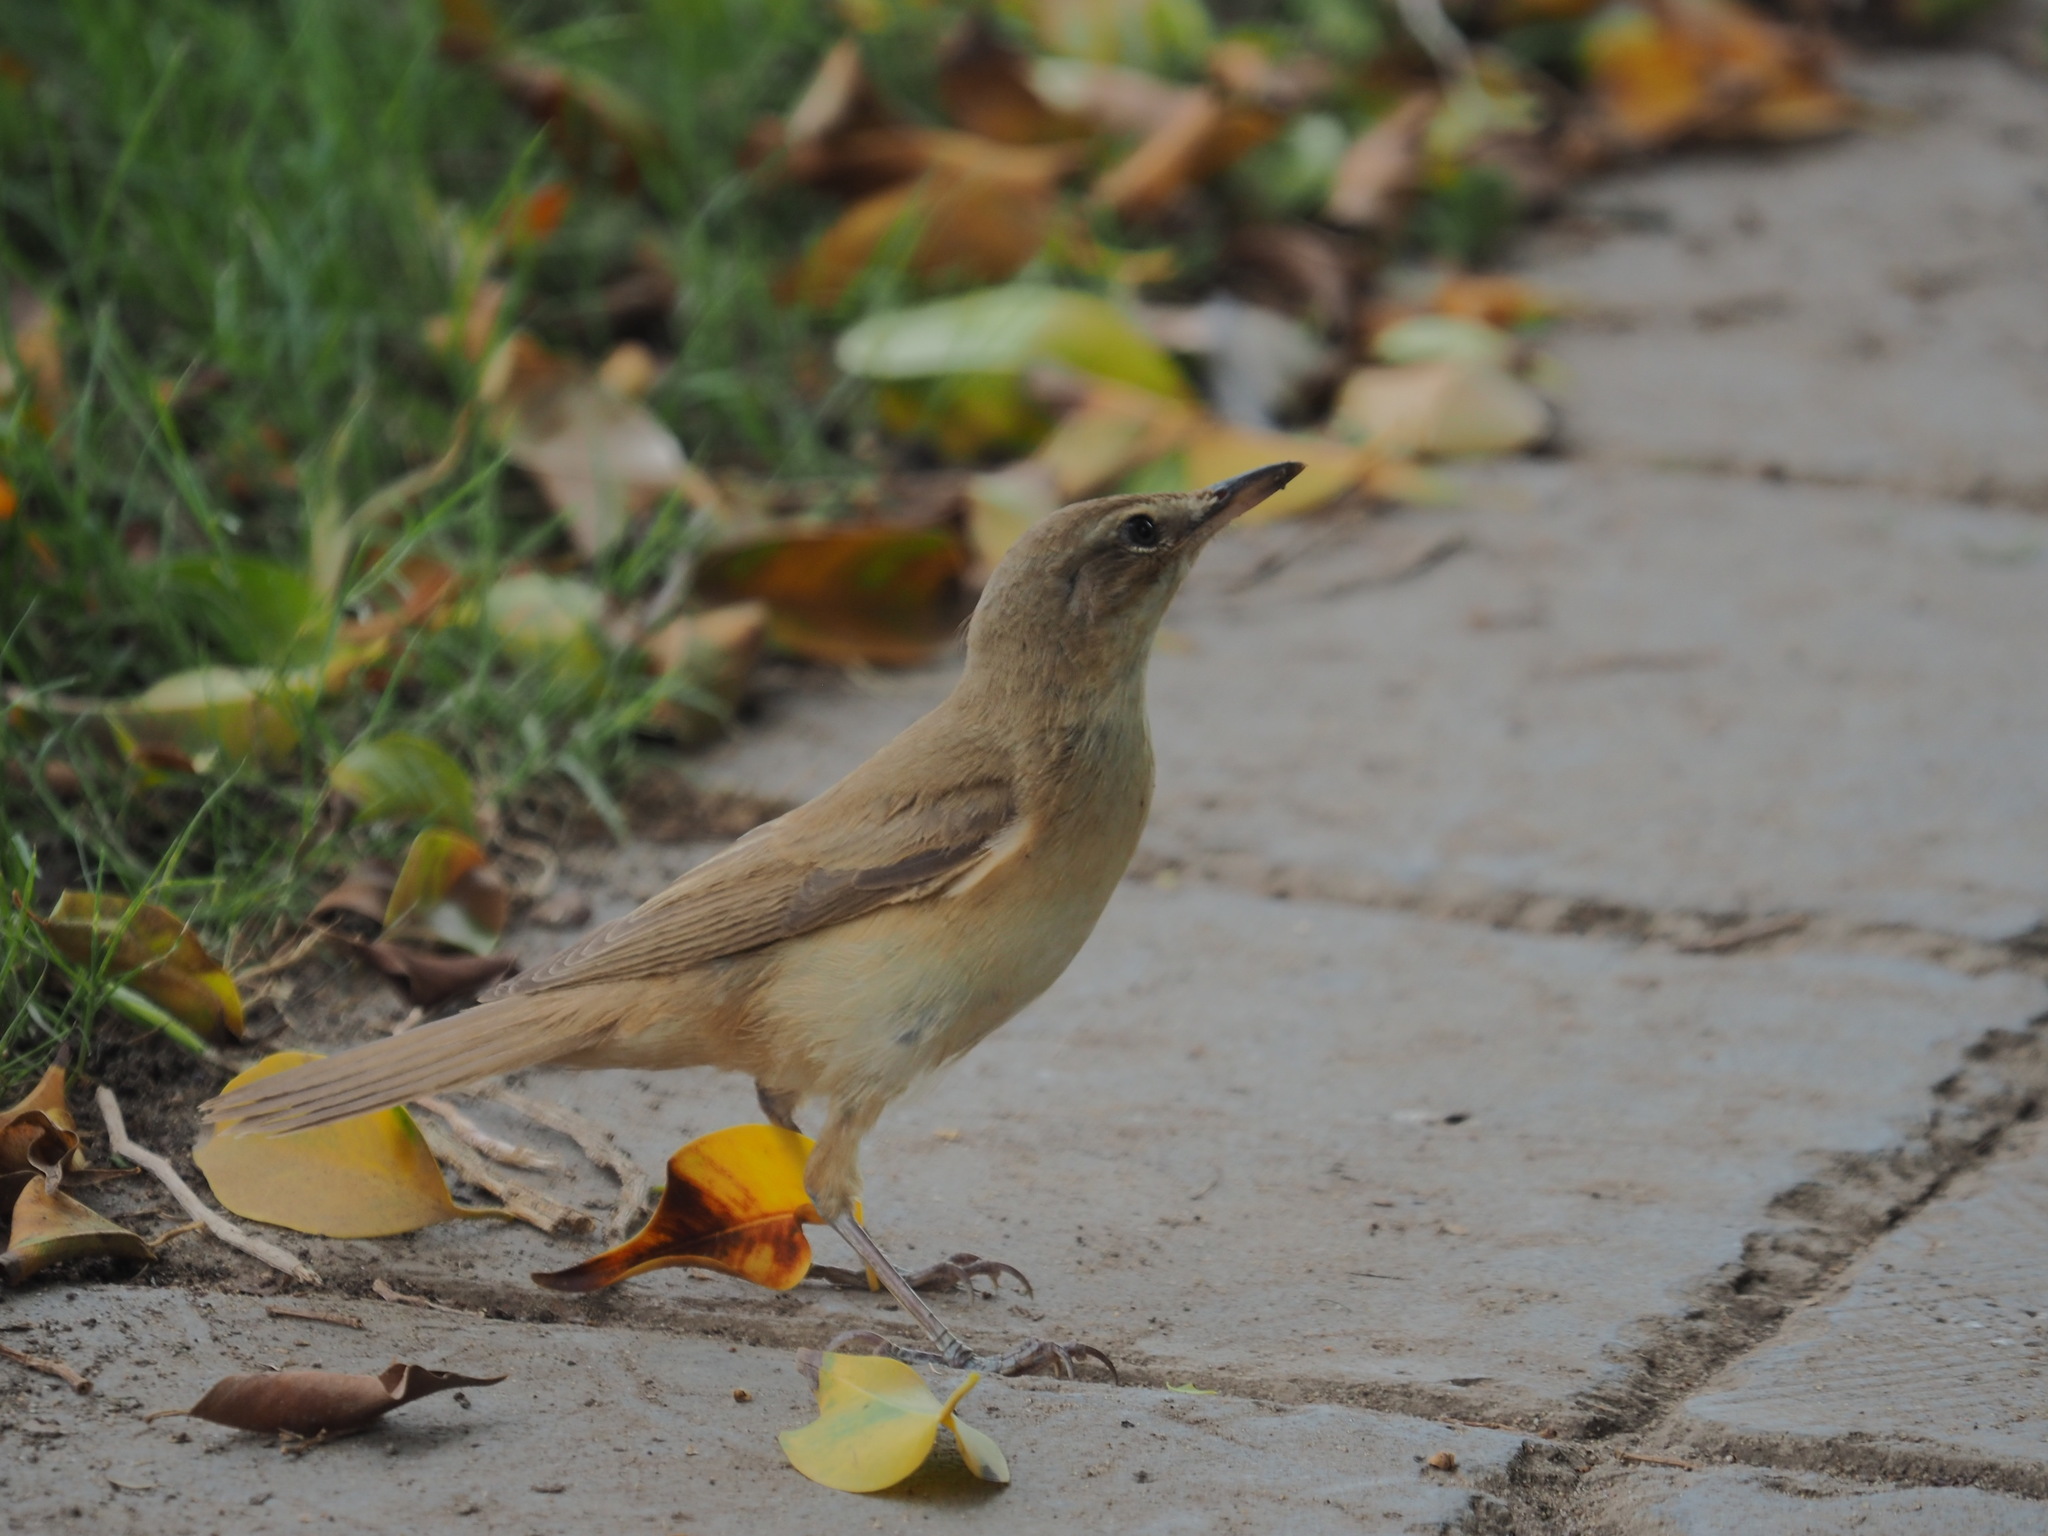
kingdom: Animalia
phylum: Chordata
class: Aves
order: Passeriformes
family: Acrocephalidae
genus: Acrocephalus
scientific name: Acrocephalus arundinaceus
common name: Great reed warbler
